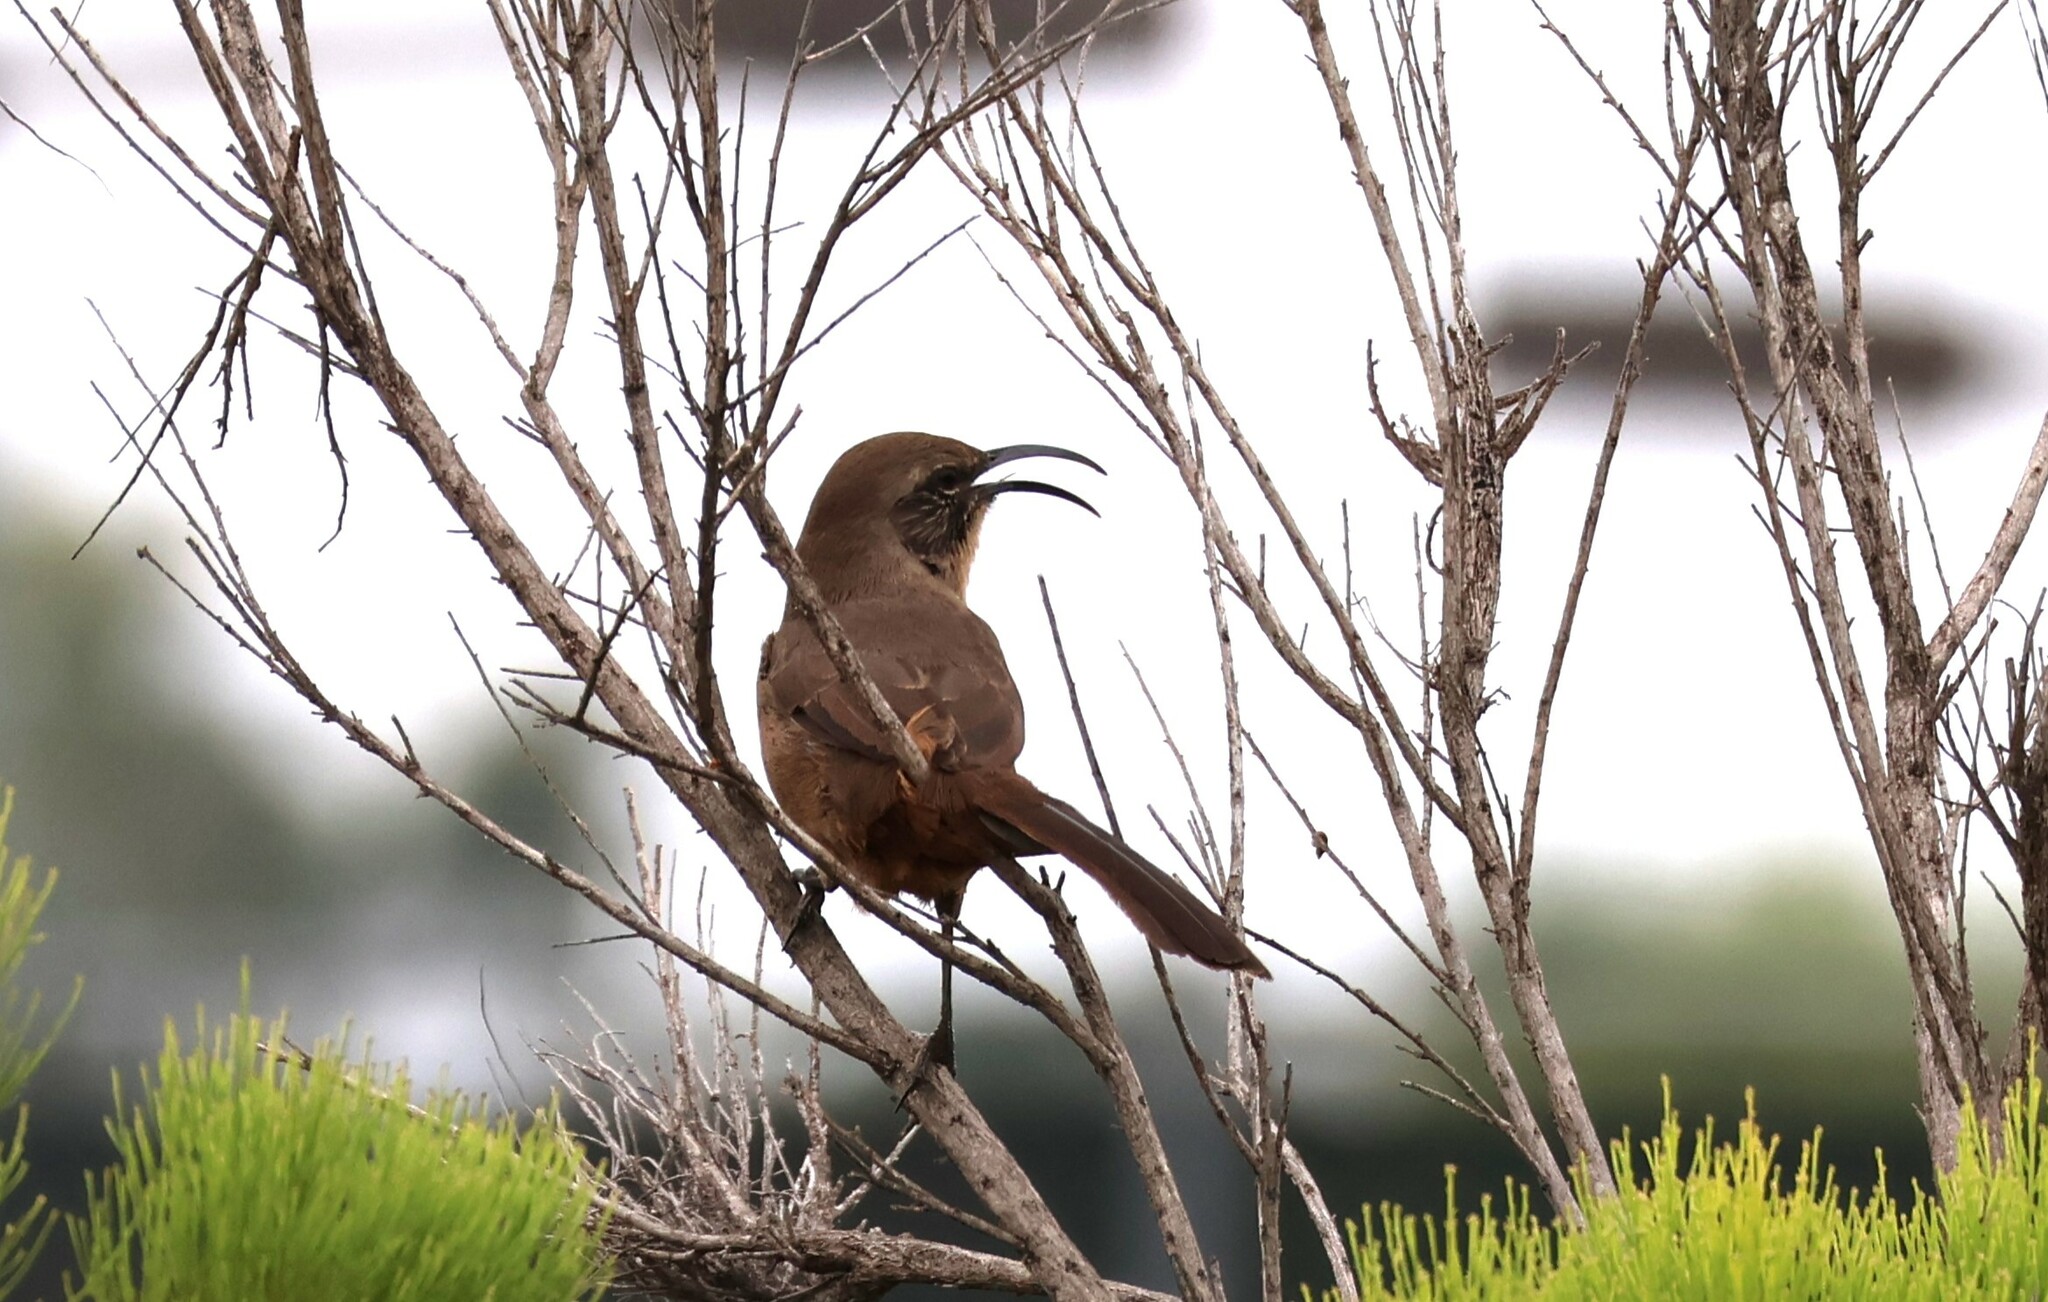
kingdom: Animalia
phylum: Chordata
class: Aves
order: Passeriformes
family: Mimidae
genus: Toxostoma
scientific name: Toxostoma redivivum
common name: California thrasher
